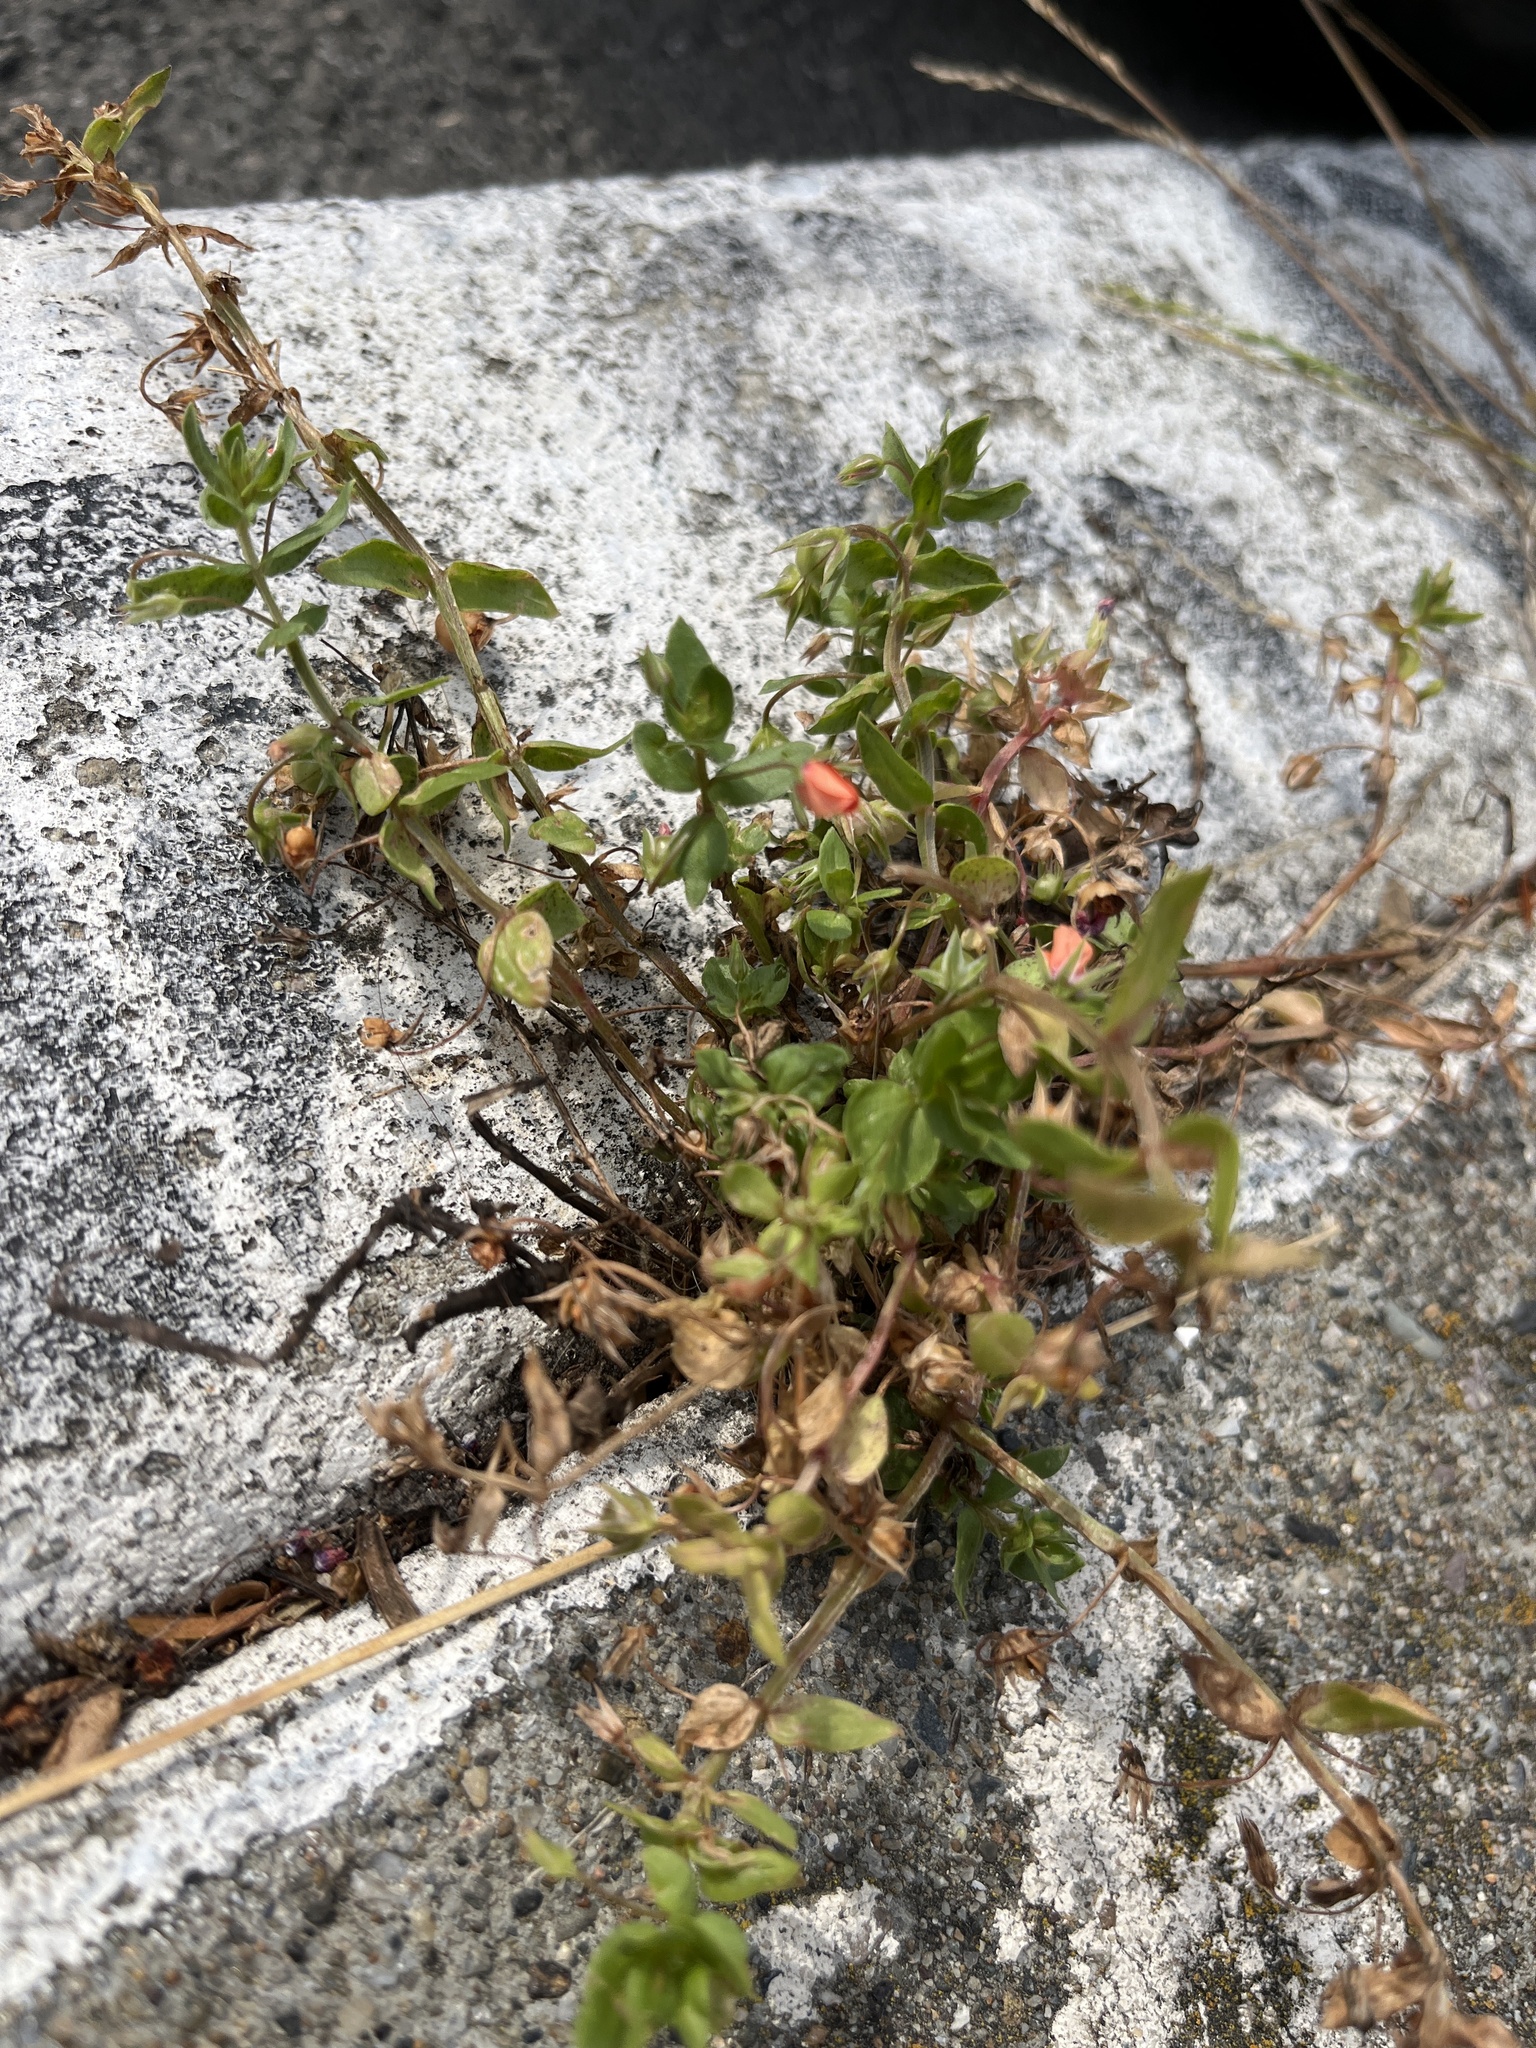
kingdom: Plantae
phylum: Tracheophyta
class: Magnoliopsida
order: Ericales
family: Primulaceae
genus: Lysimachia
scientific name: Lysimachia arvensis
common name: Scarlet pimpernel
